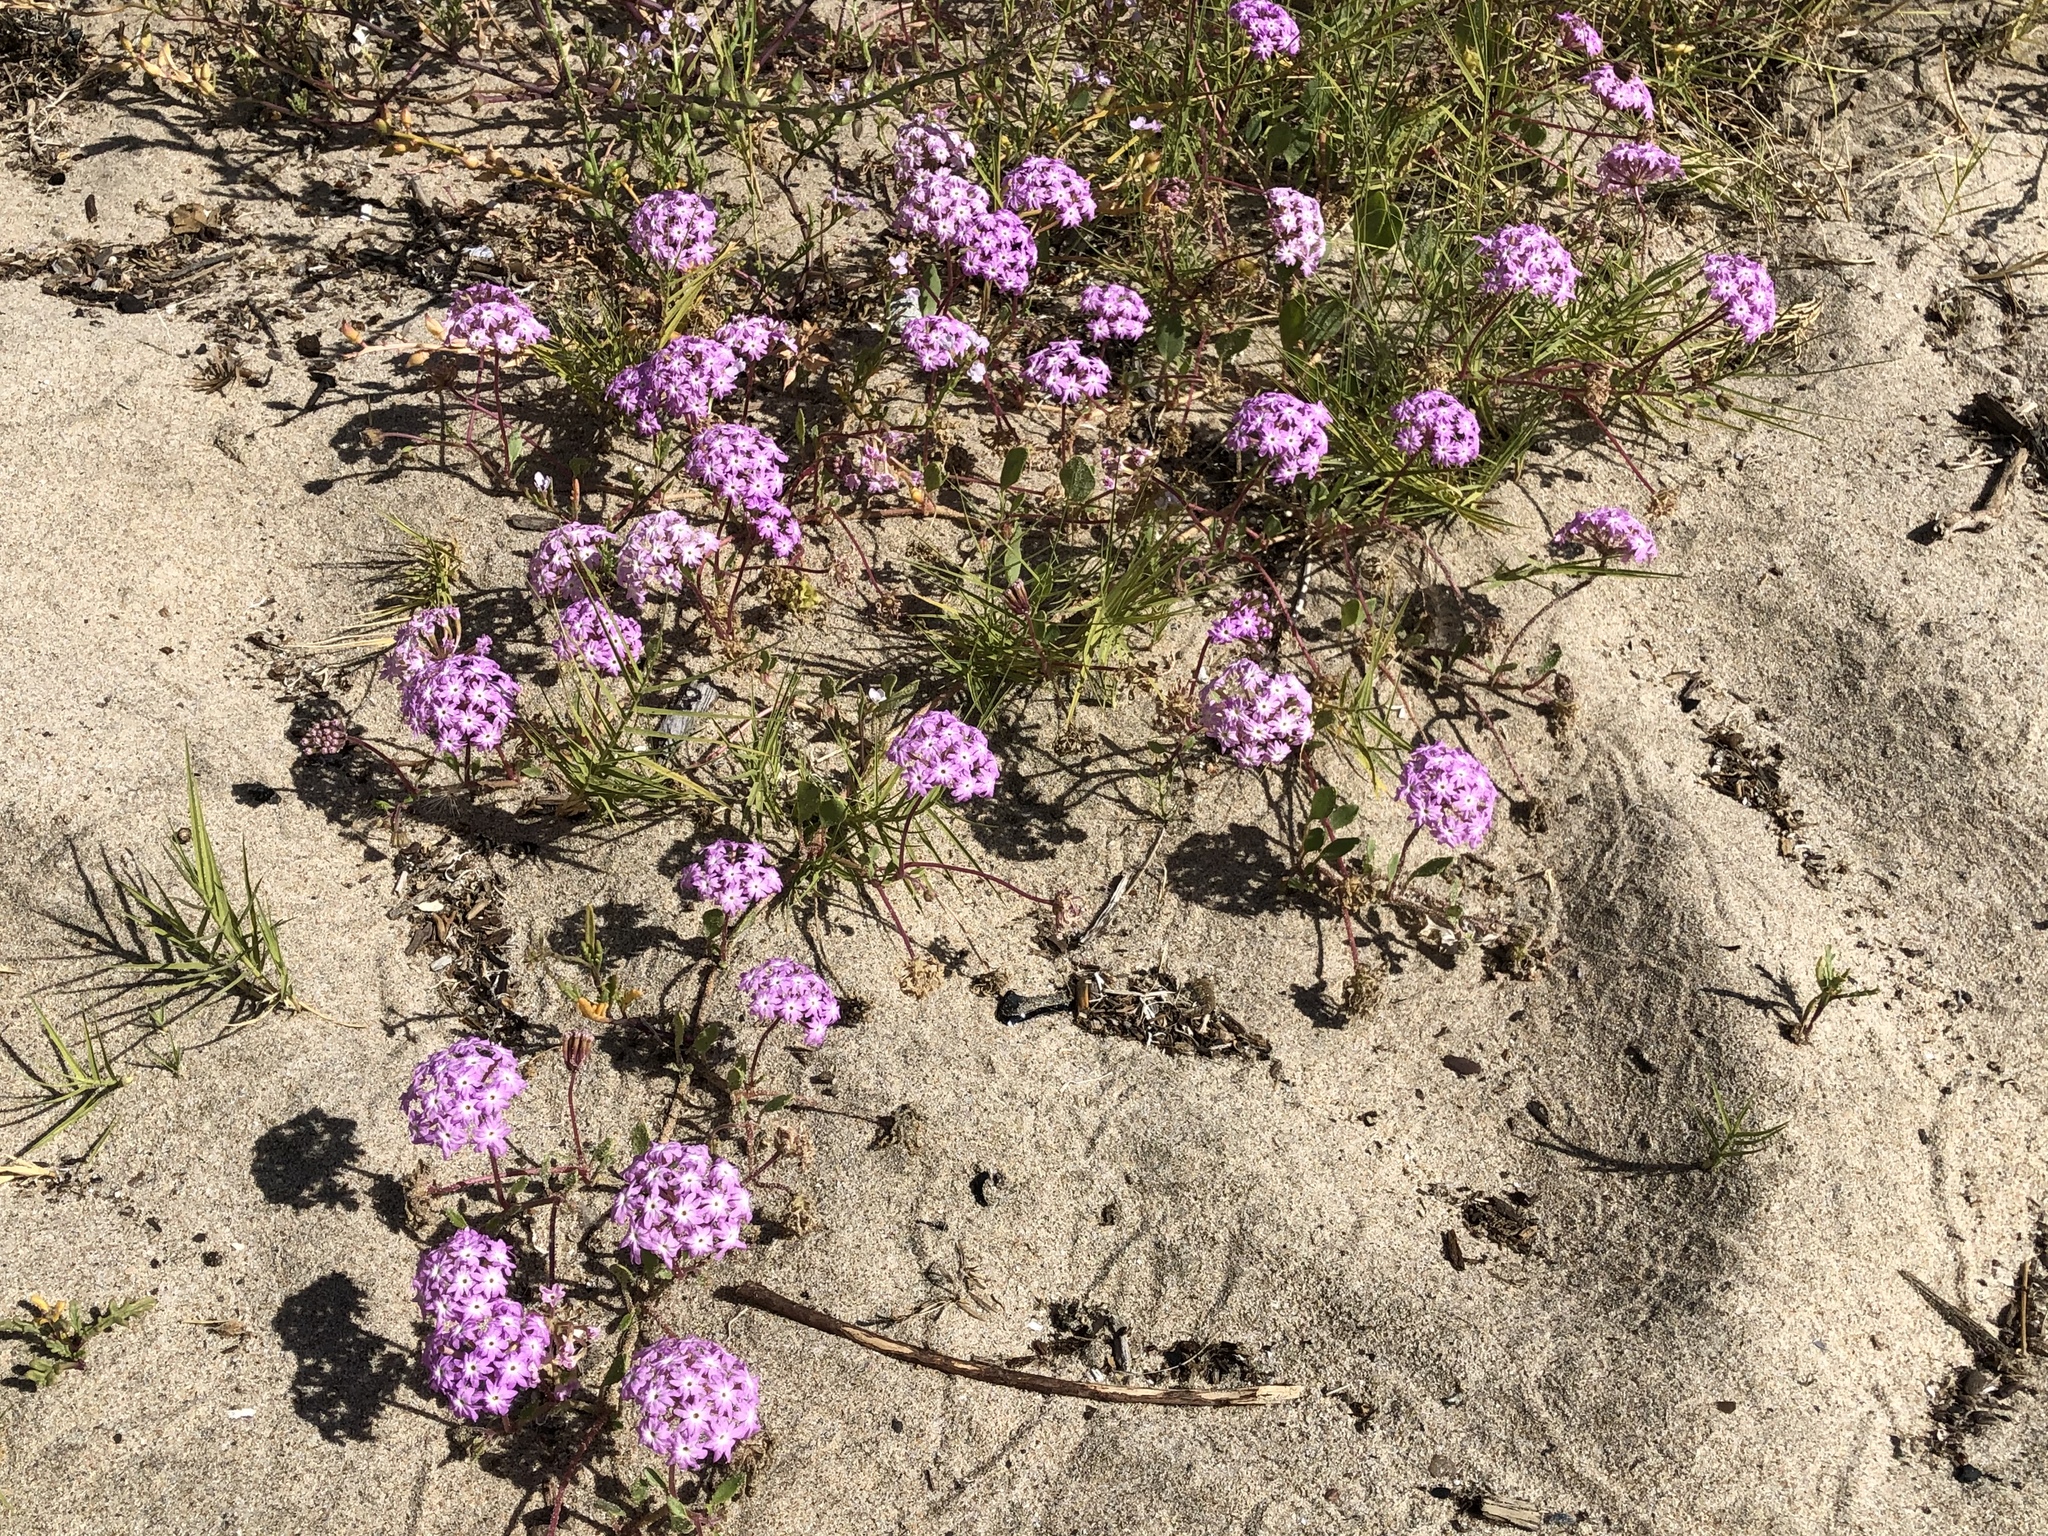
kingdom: Plantae
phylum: Tracheophyta
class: Magnoliopsida
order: Caryophyllales
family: Nyctaginaceae
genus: Abronia
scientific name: Abronia umbellata
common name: Sand-verbena
